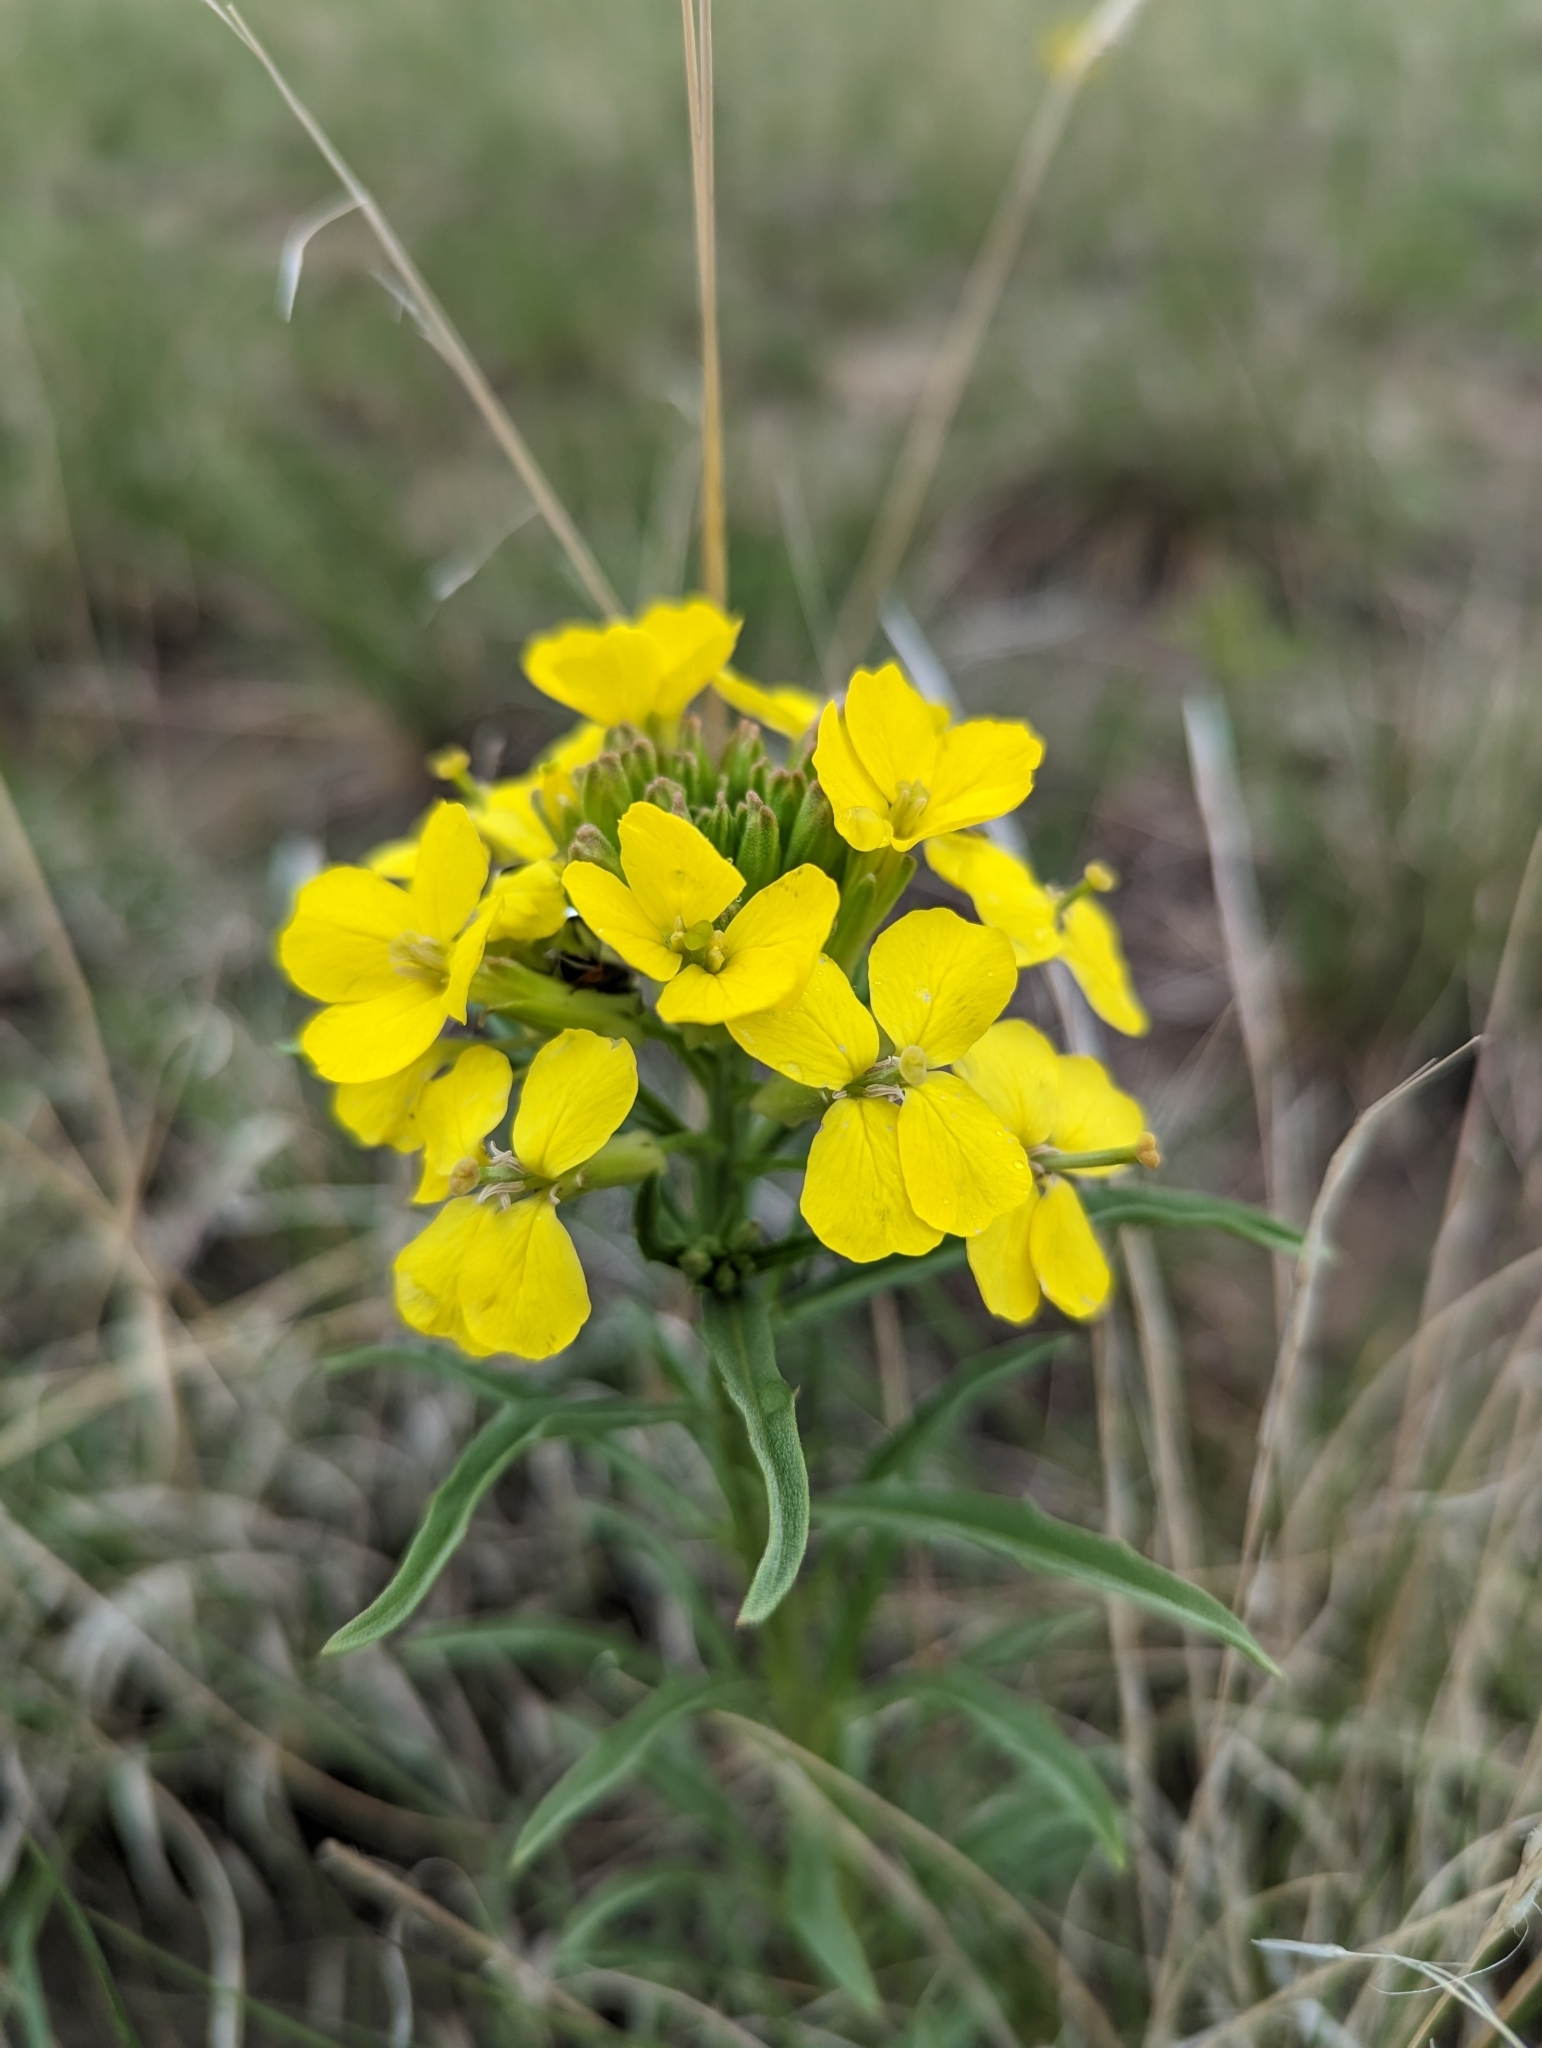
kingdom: Plantae
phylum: Tracheophyta
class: Magnoliopsida
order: Brassicales
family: Brassicaceae
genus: Erysimum
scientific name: Erysimum asperum
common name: Western wallflower
